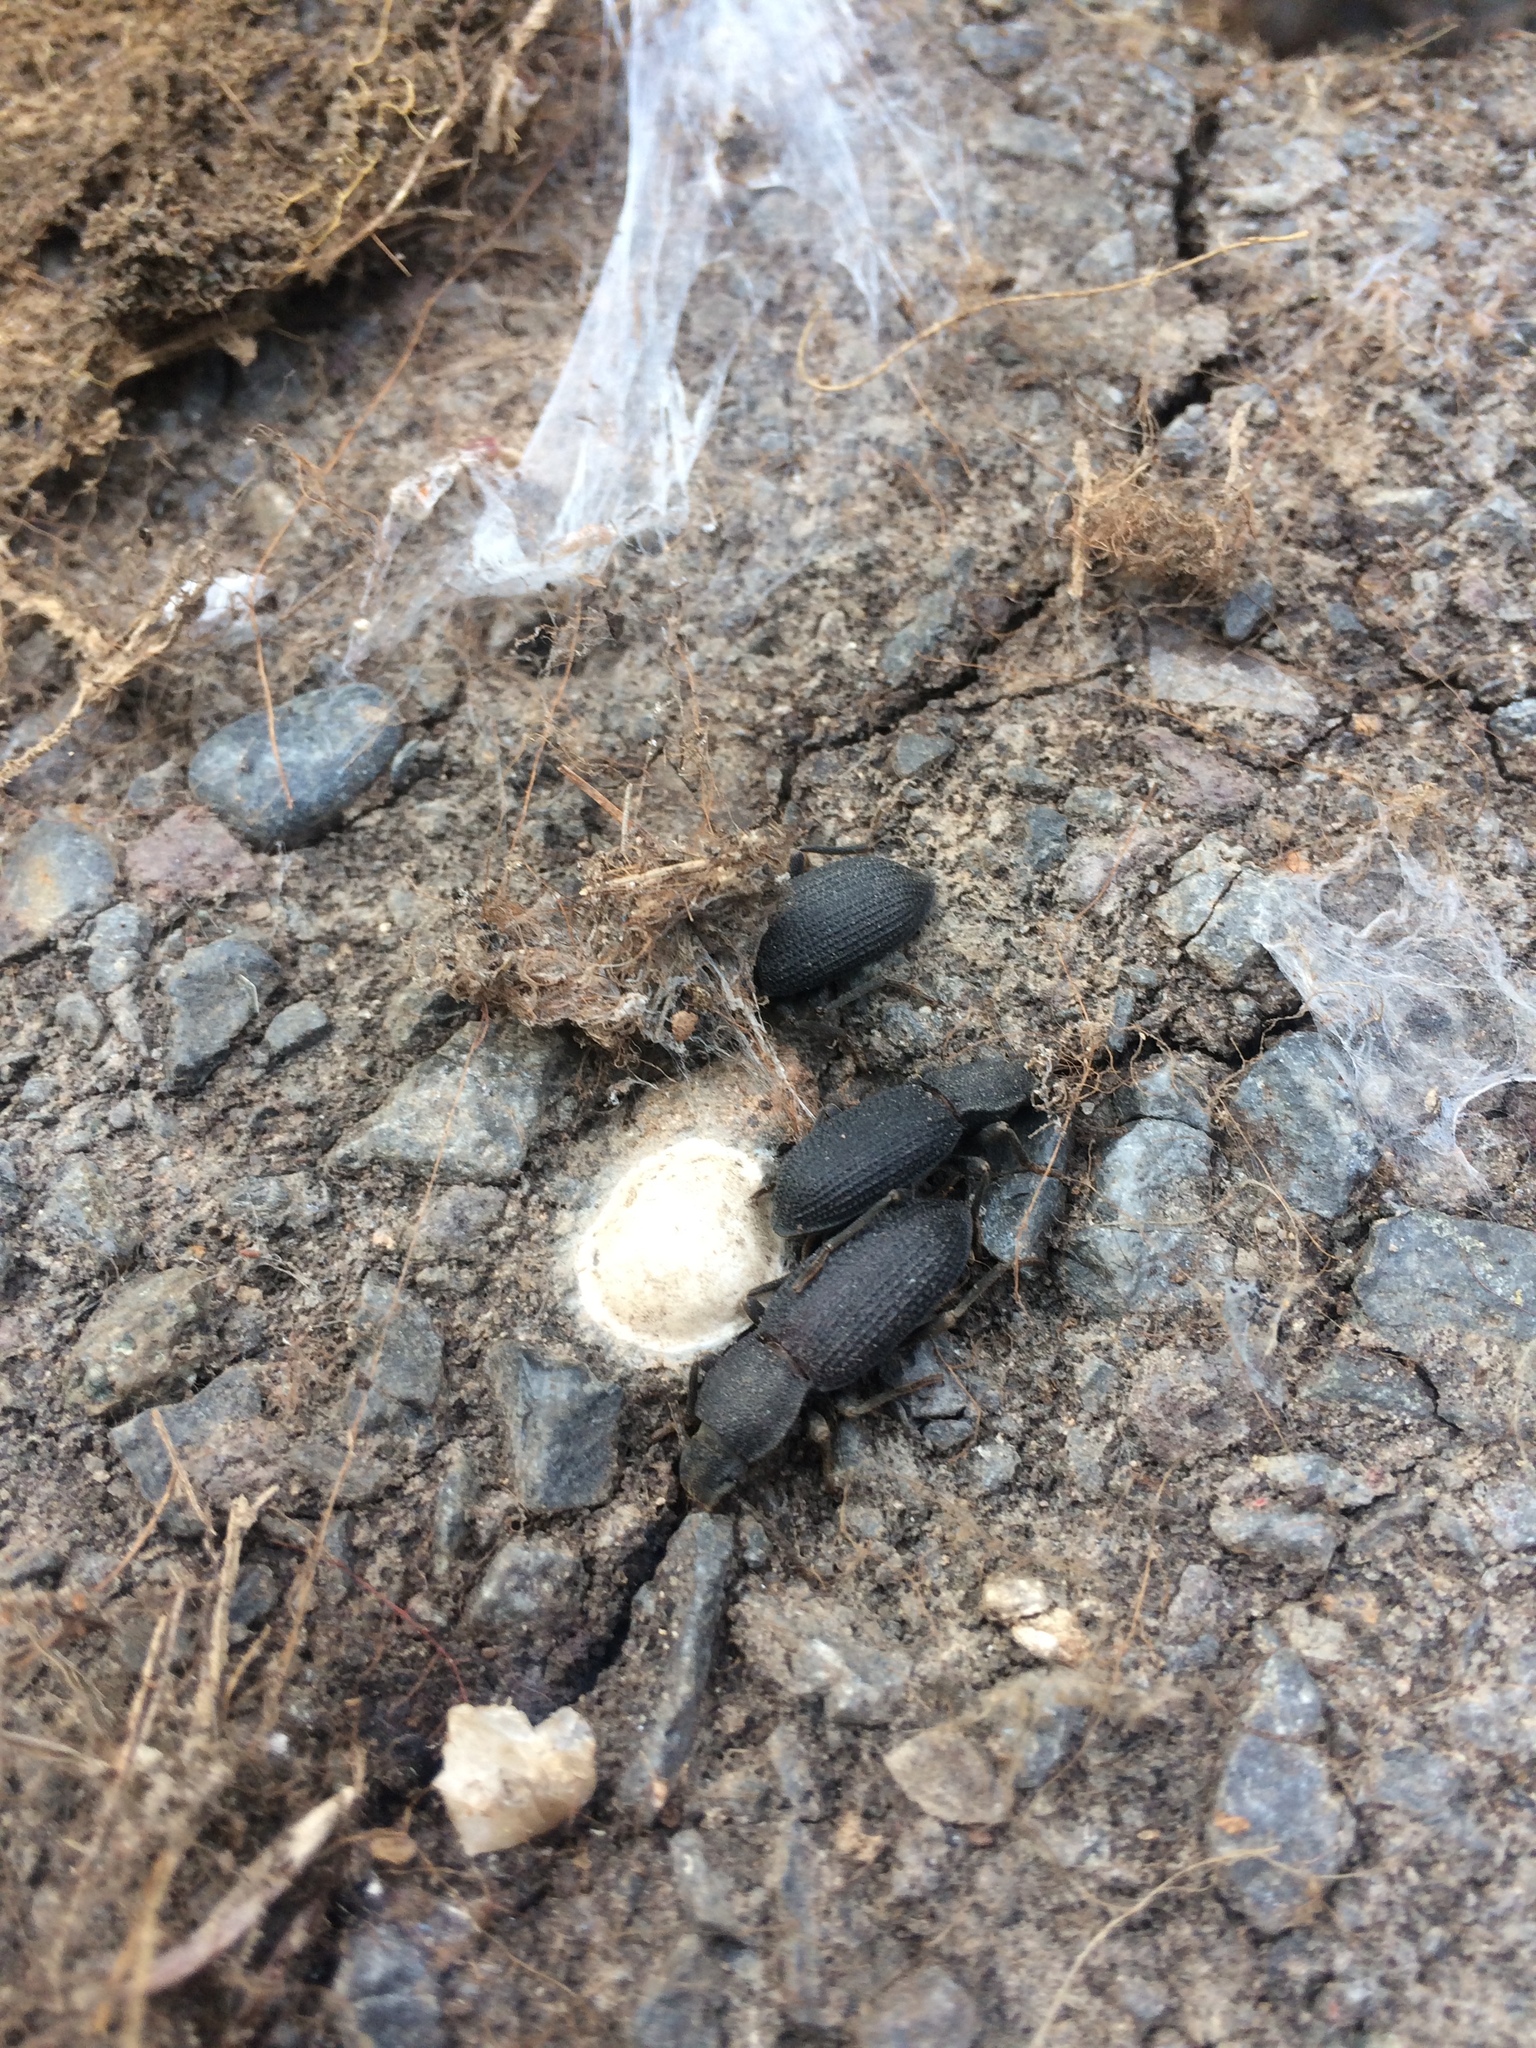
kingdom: Animalia
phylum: Arthropoda
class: Insecta
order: Coleoptera
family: Tenebrionidae
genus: Nyctoporis
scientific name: Nyctoporis
